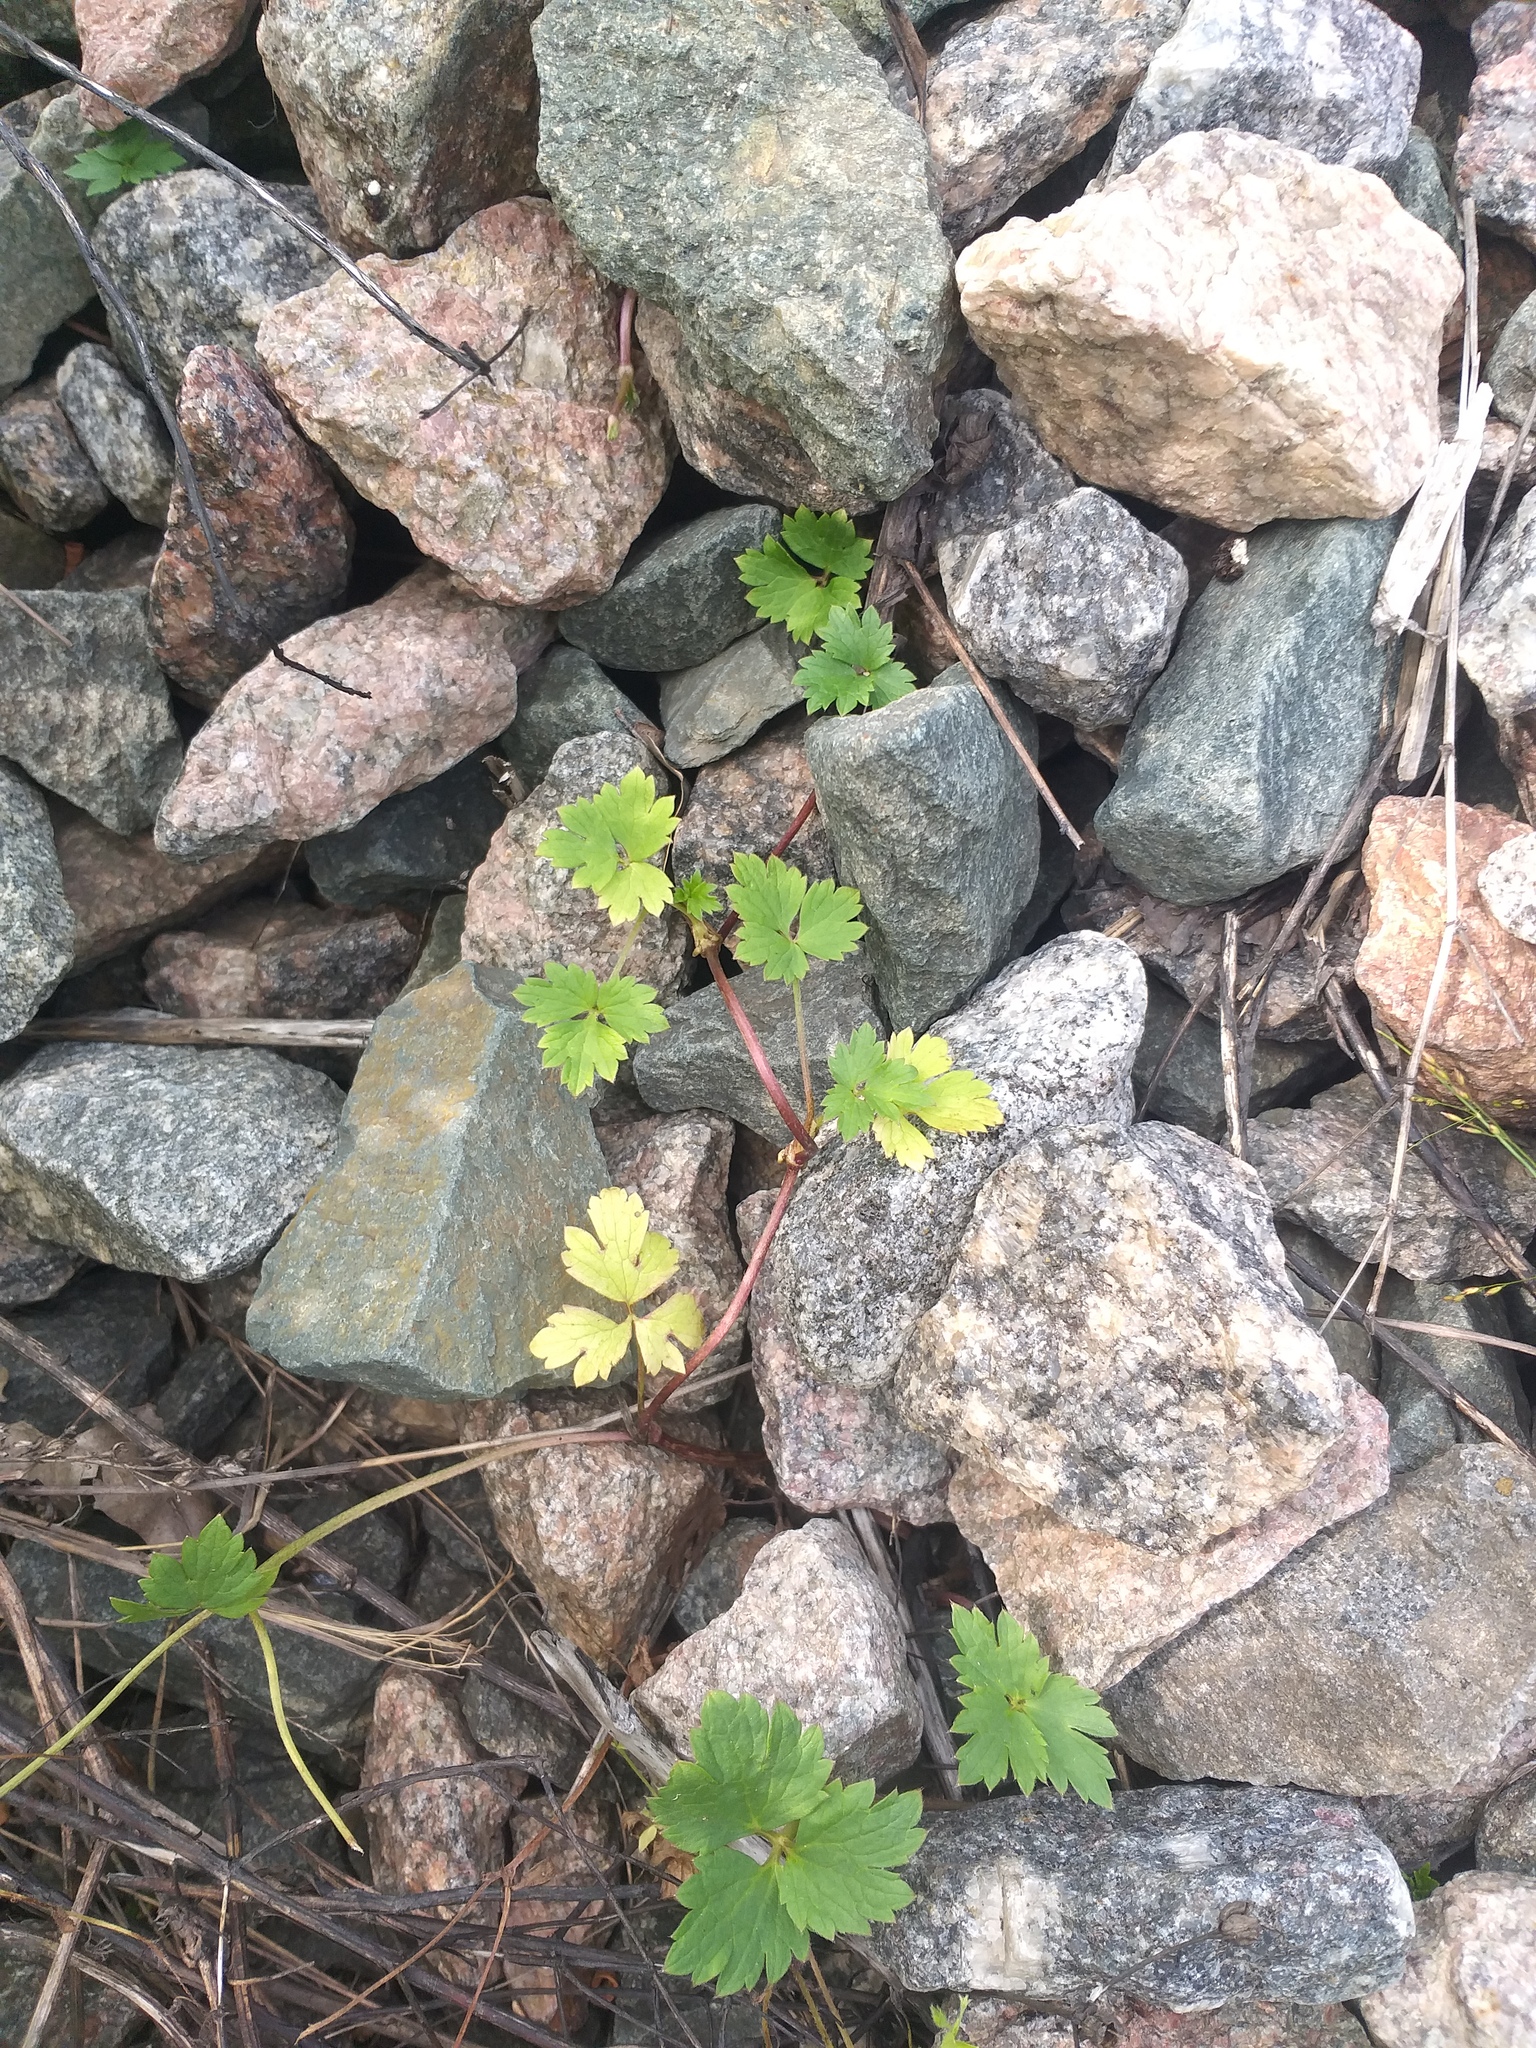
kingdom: Plantae
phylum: Tracheophyta
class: Magnoliopsida
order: Ranunculales
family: Ranunculaceae
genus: Ranunculus
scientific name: Ranunculus repens
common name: Creeping buttercup
